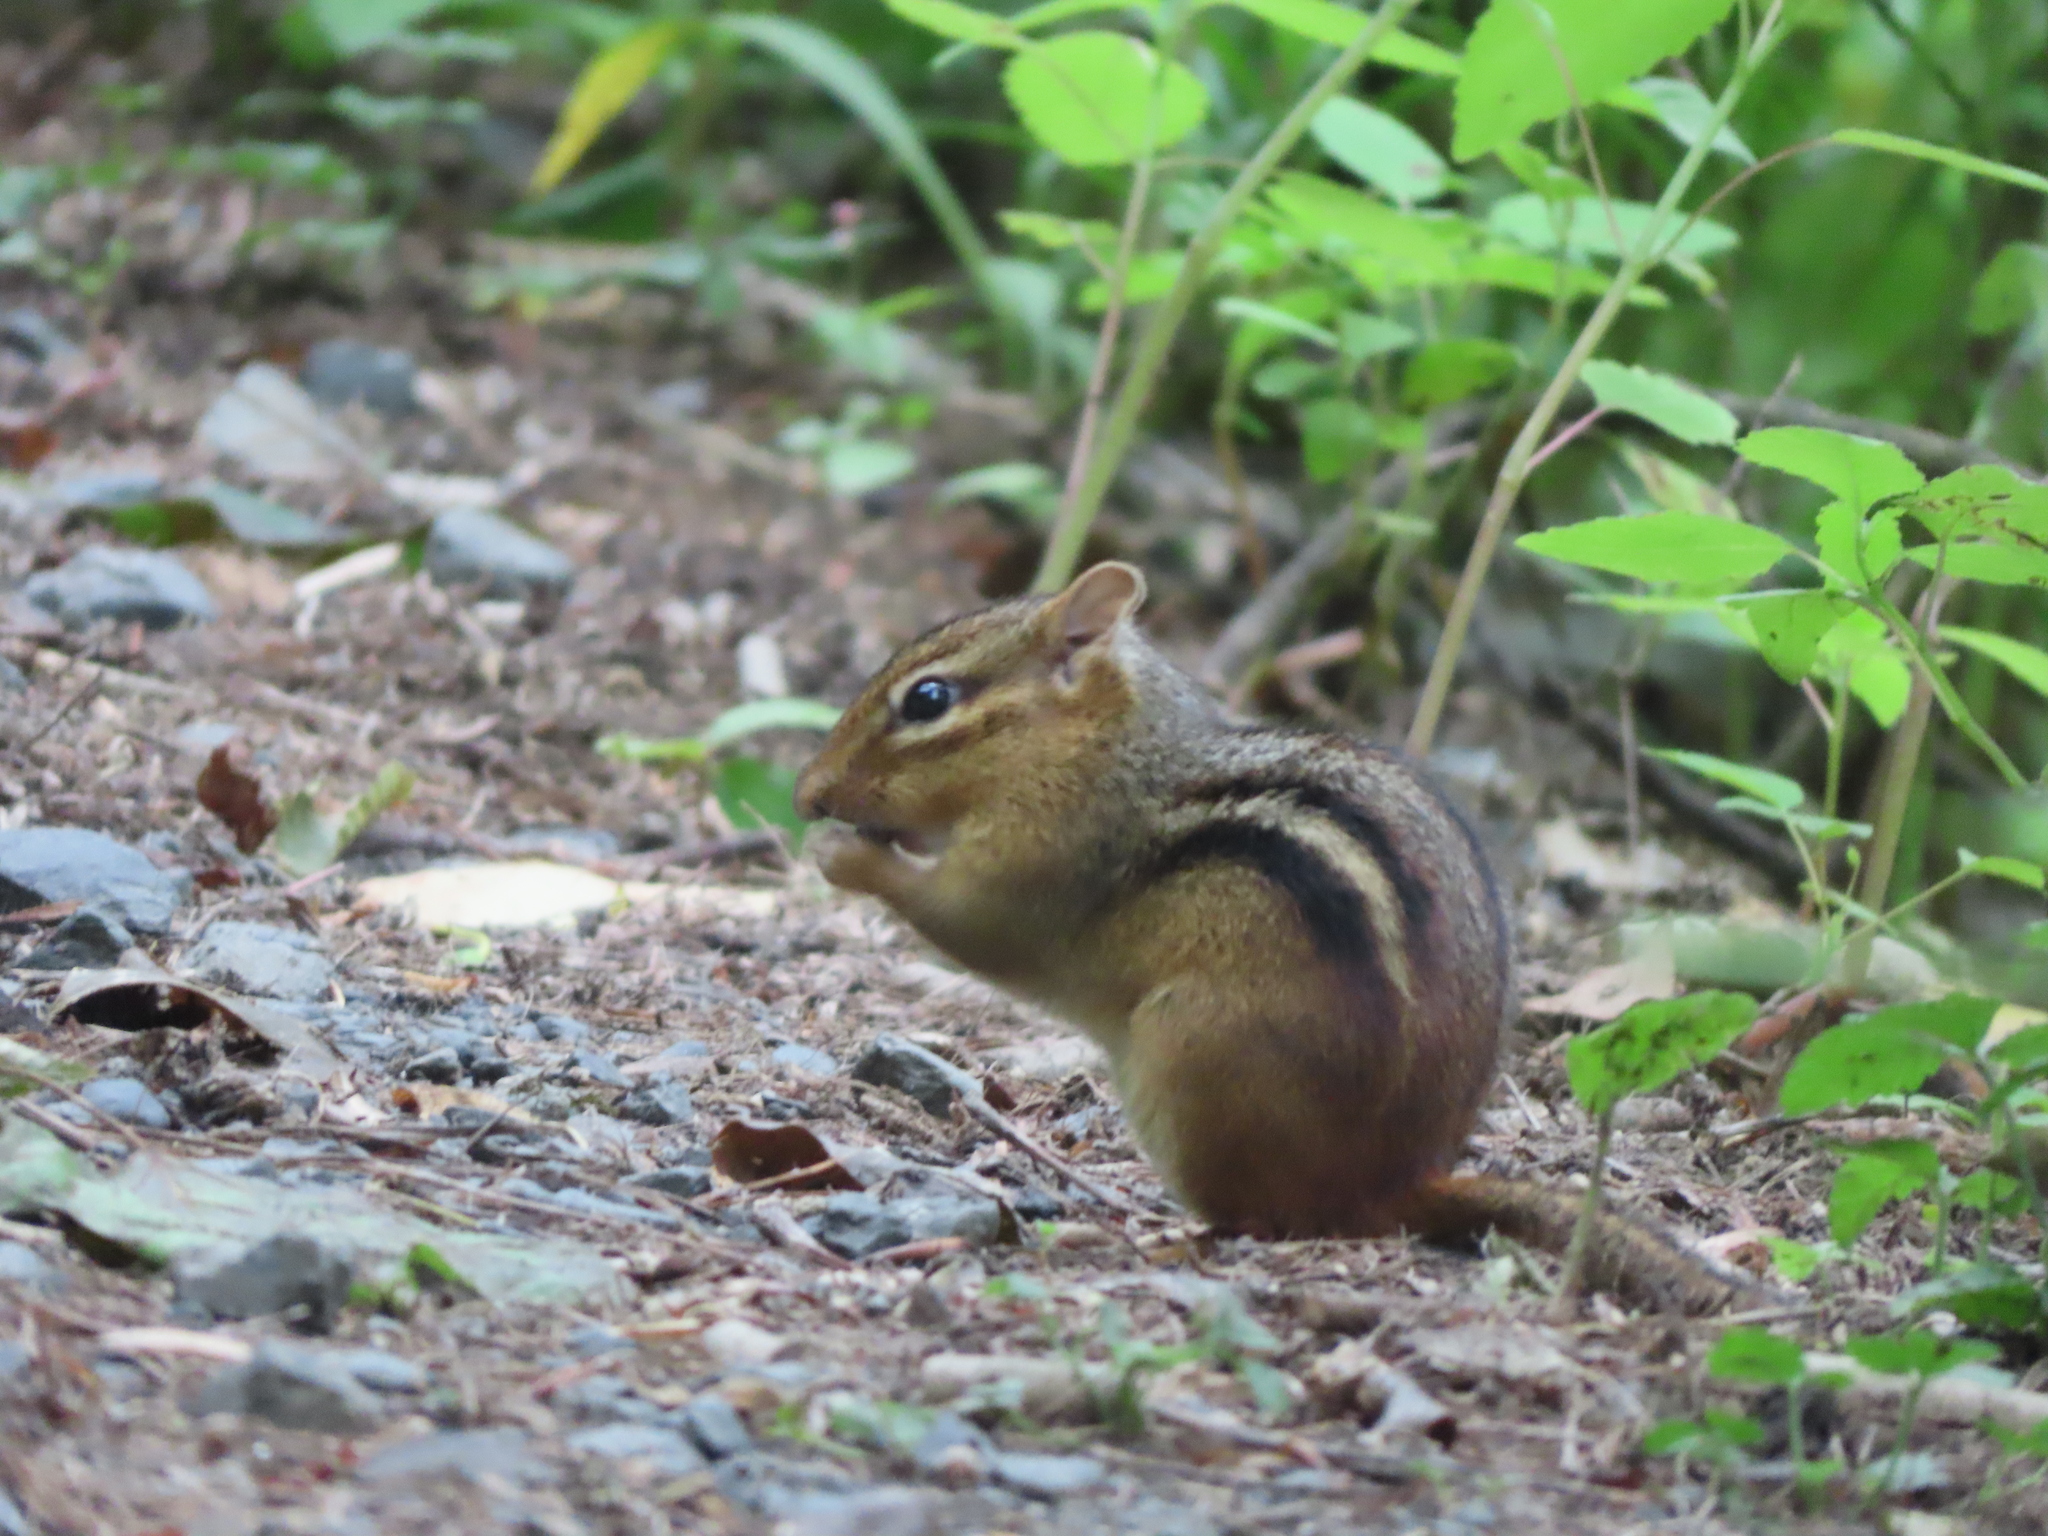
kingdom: Animalia
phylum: Chordata
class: Mammalia
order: Rodentia
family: Sciuridae
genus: Tamias
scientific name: Tamias striatus
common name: Eastern chipmunk
